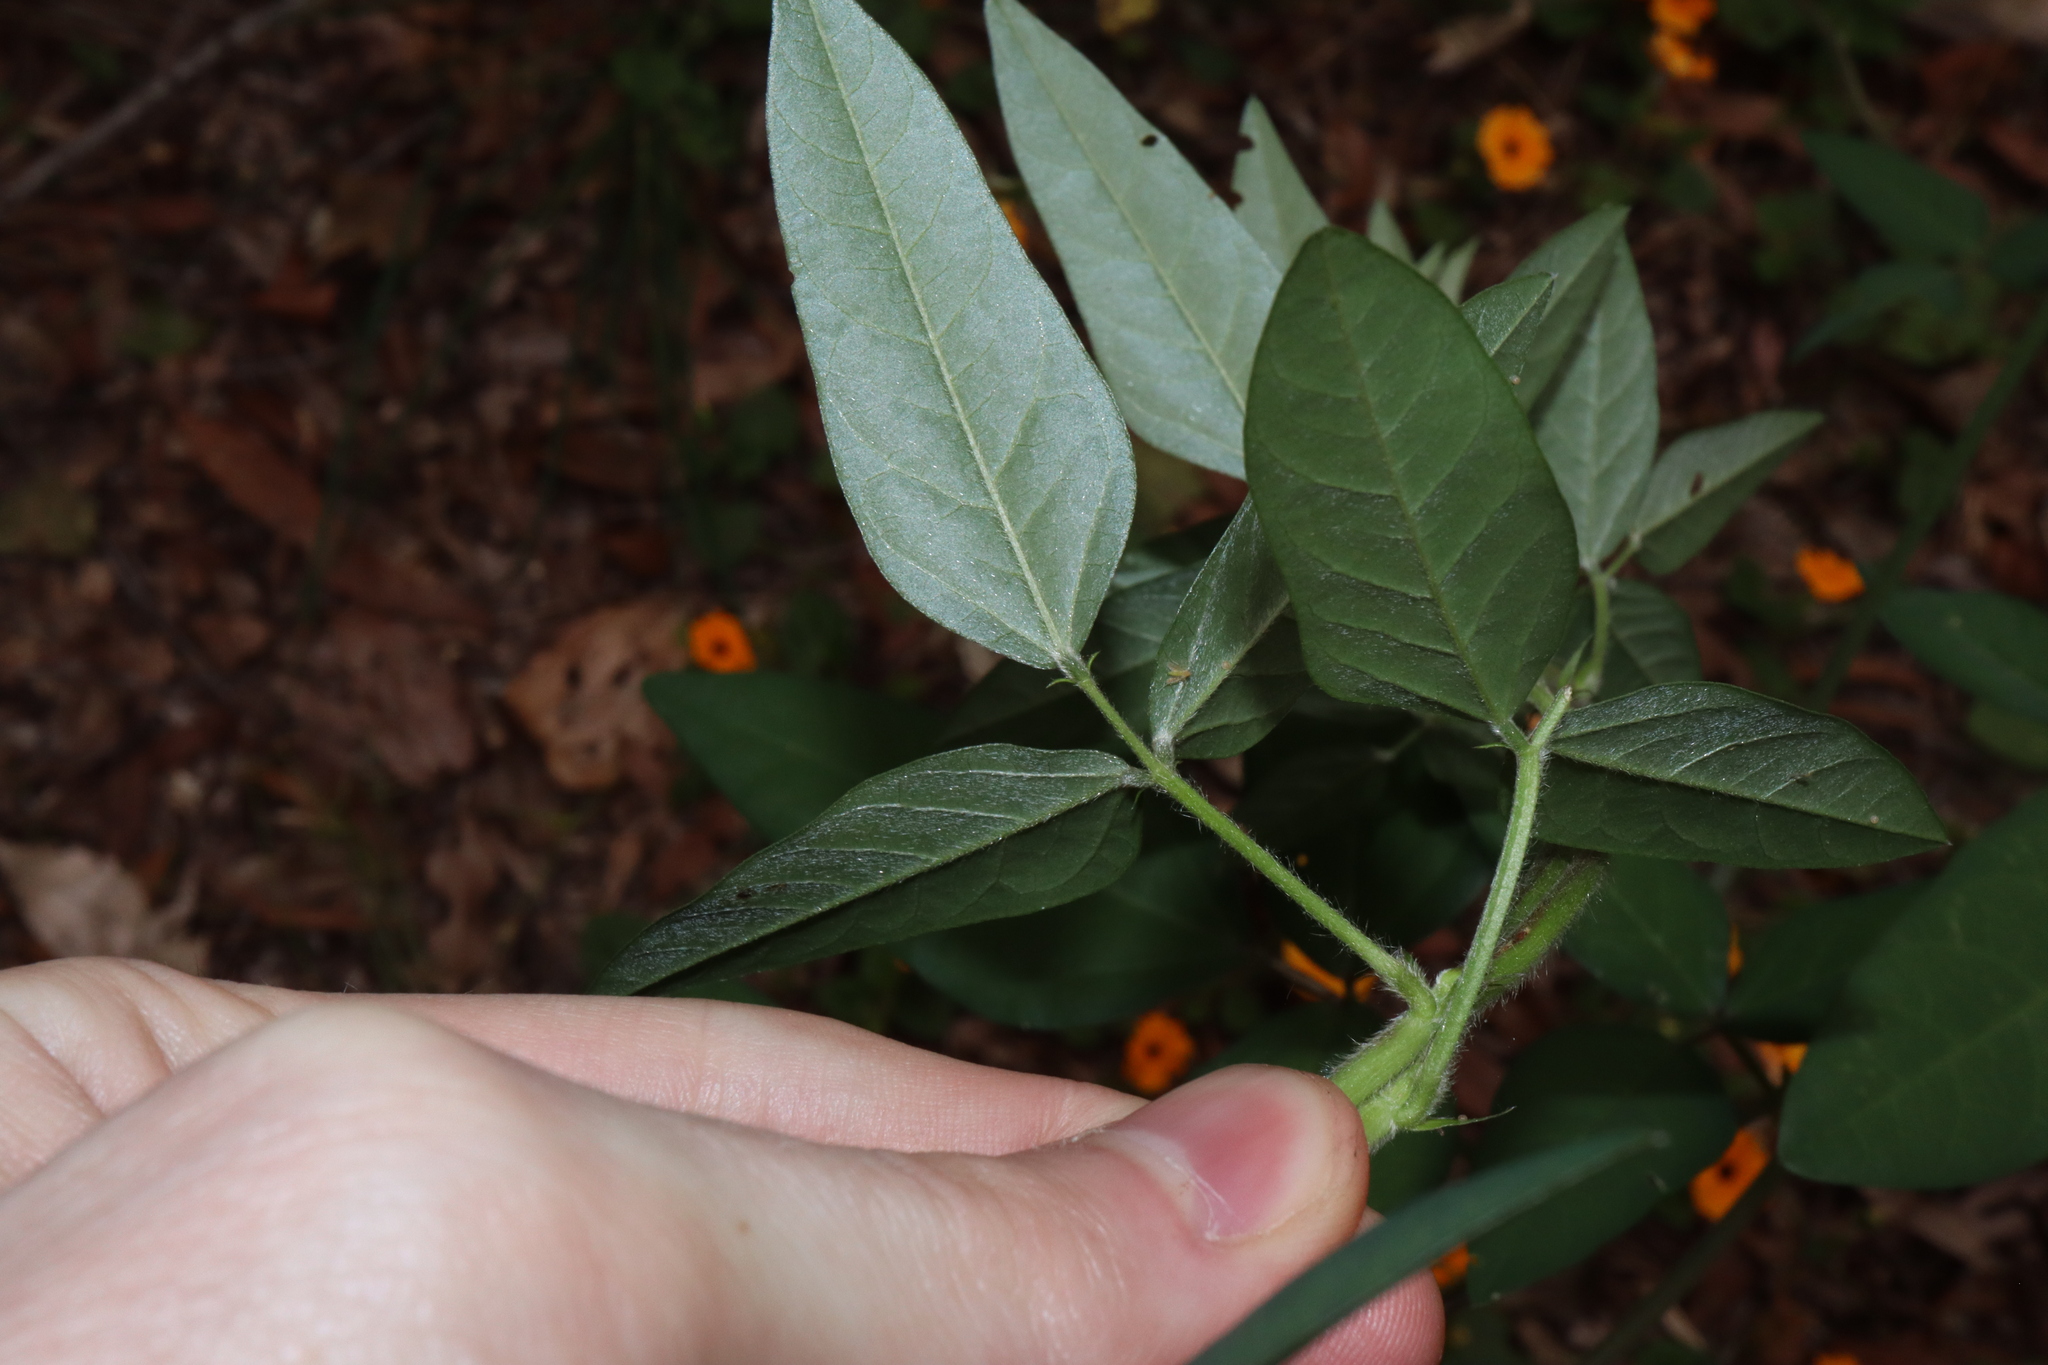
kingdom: Plantae
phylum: Tracheophyta
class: Magnoliopsida
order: Fabales
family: Fabaceae
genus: Macroptilium
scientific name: Macroptilium lathyroides
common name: Wild bushbean
